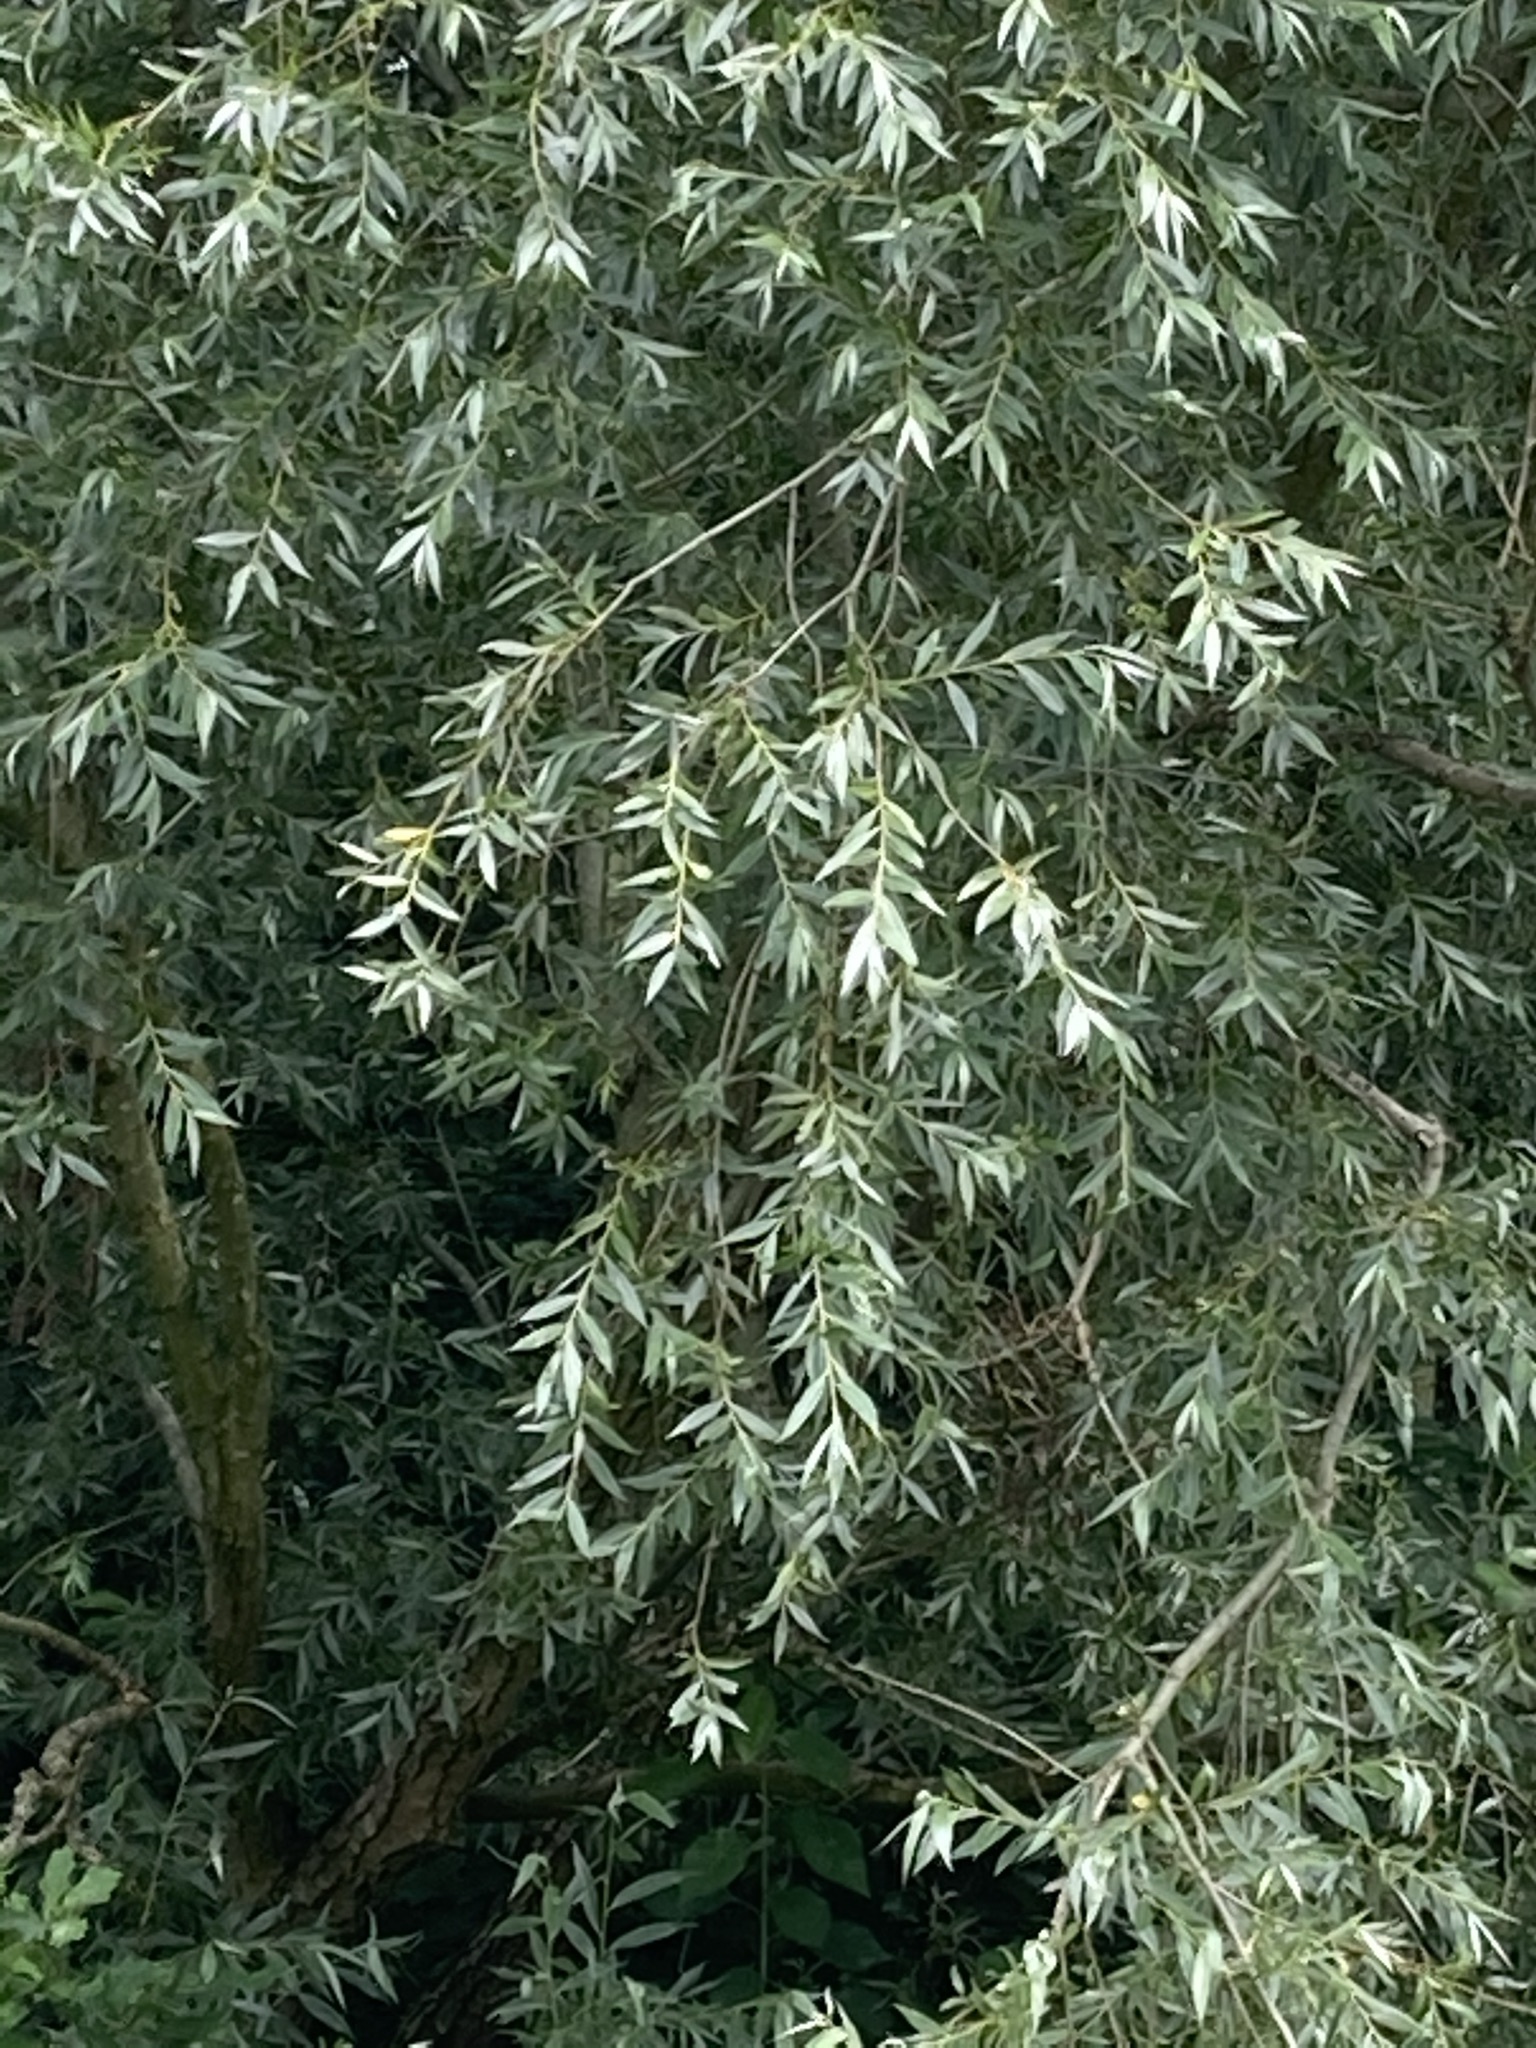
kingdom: Plantae
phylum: Tracheophyta
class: Magnoliopsida
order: Malpighiales
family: Salicaceae
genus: Salix
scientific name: Salix alba
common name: White willow
